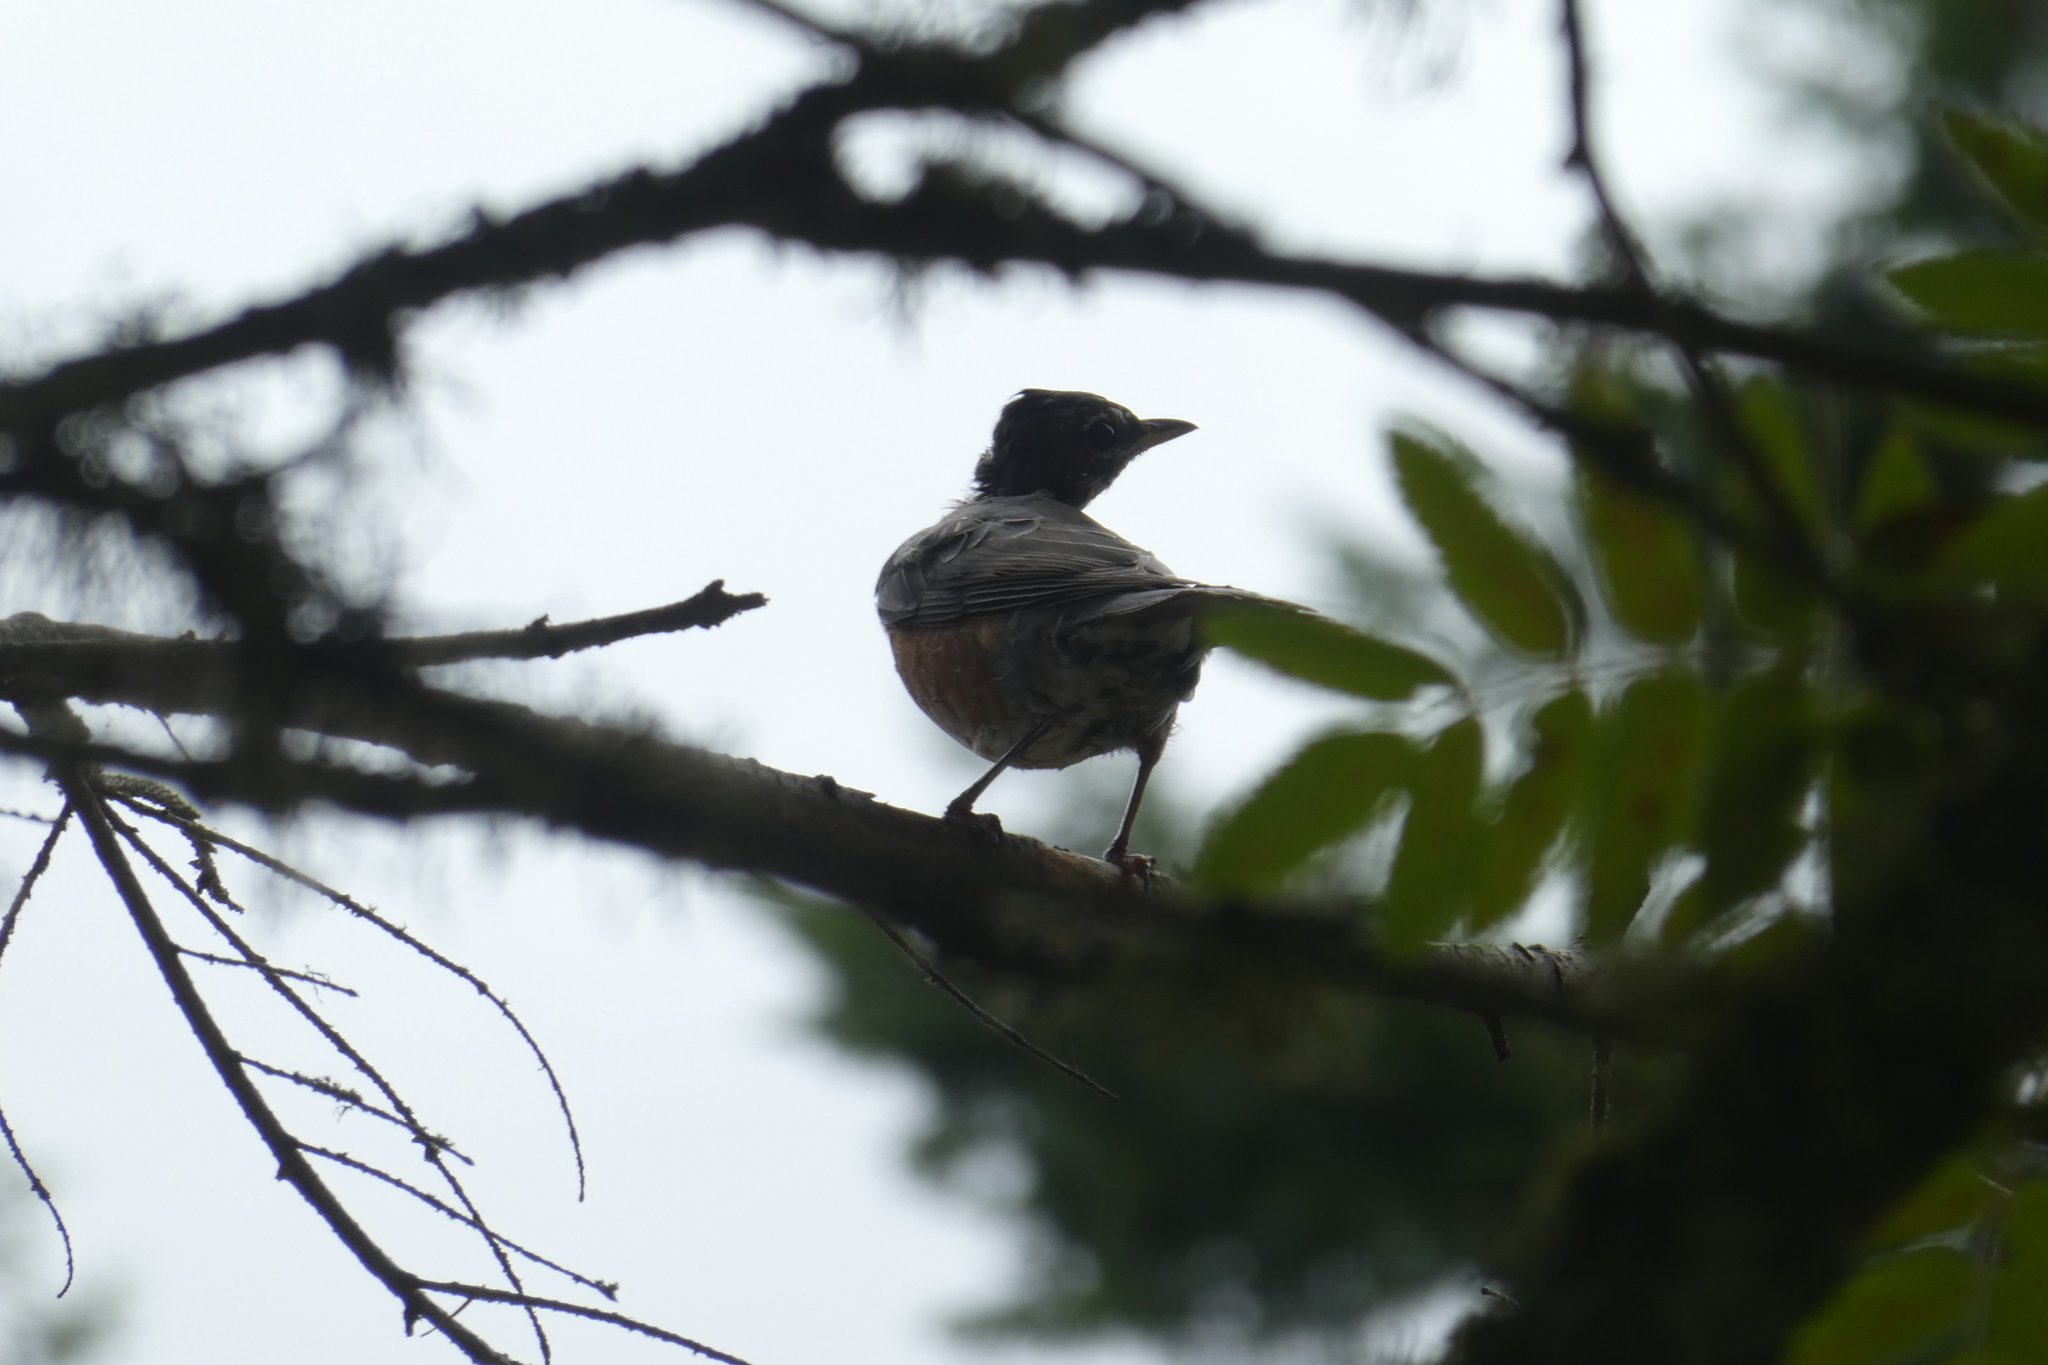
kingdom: Animalia
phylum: Chordata
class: Aves
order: Passeriformes
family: Turdidae
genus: Turdus
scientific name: Turdus migratorius
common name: American robin
